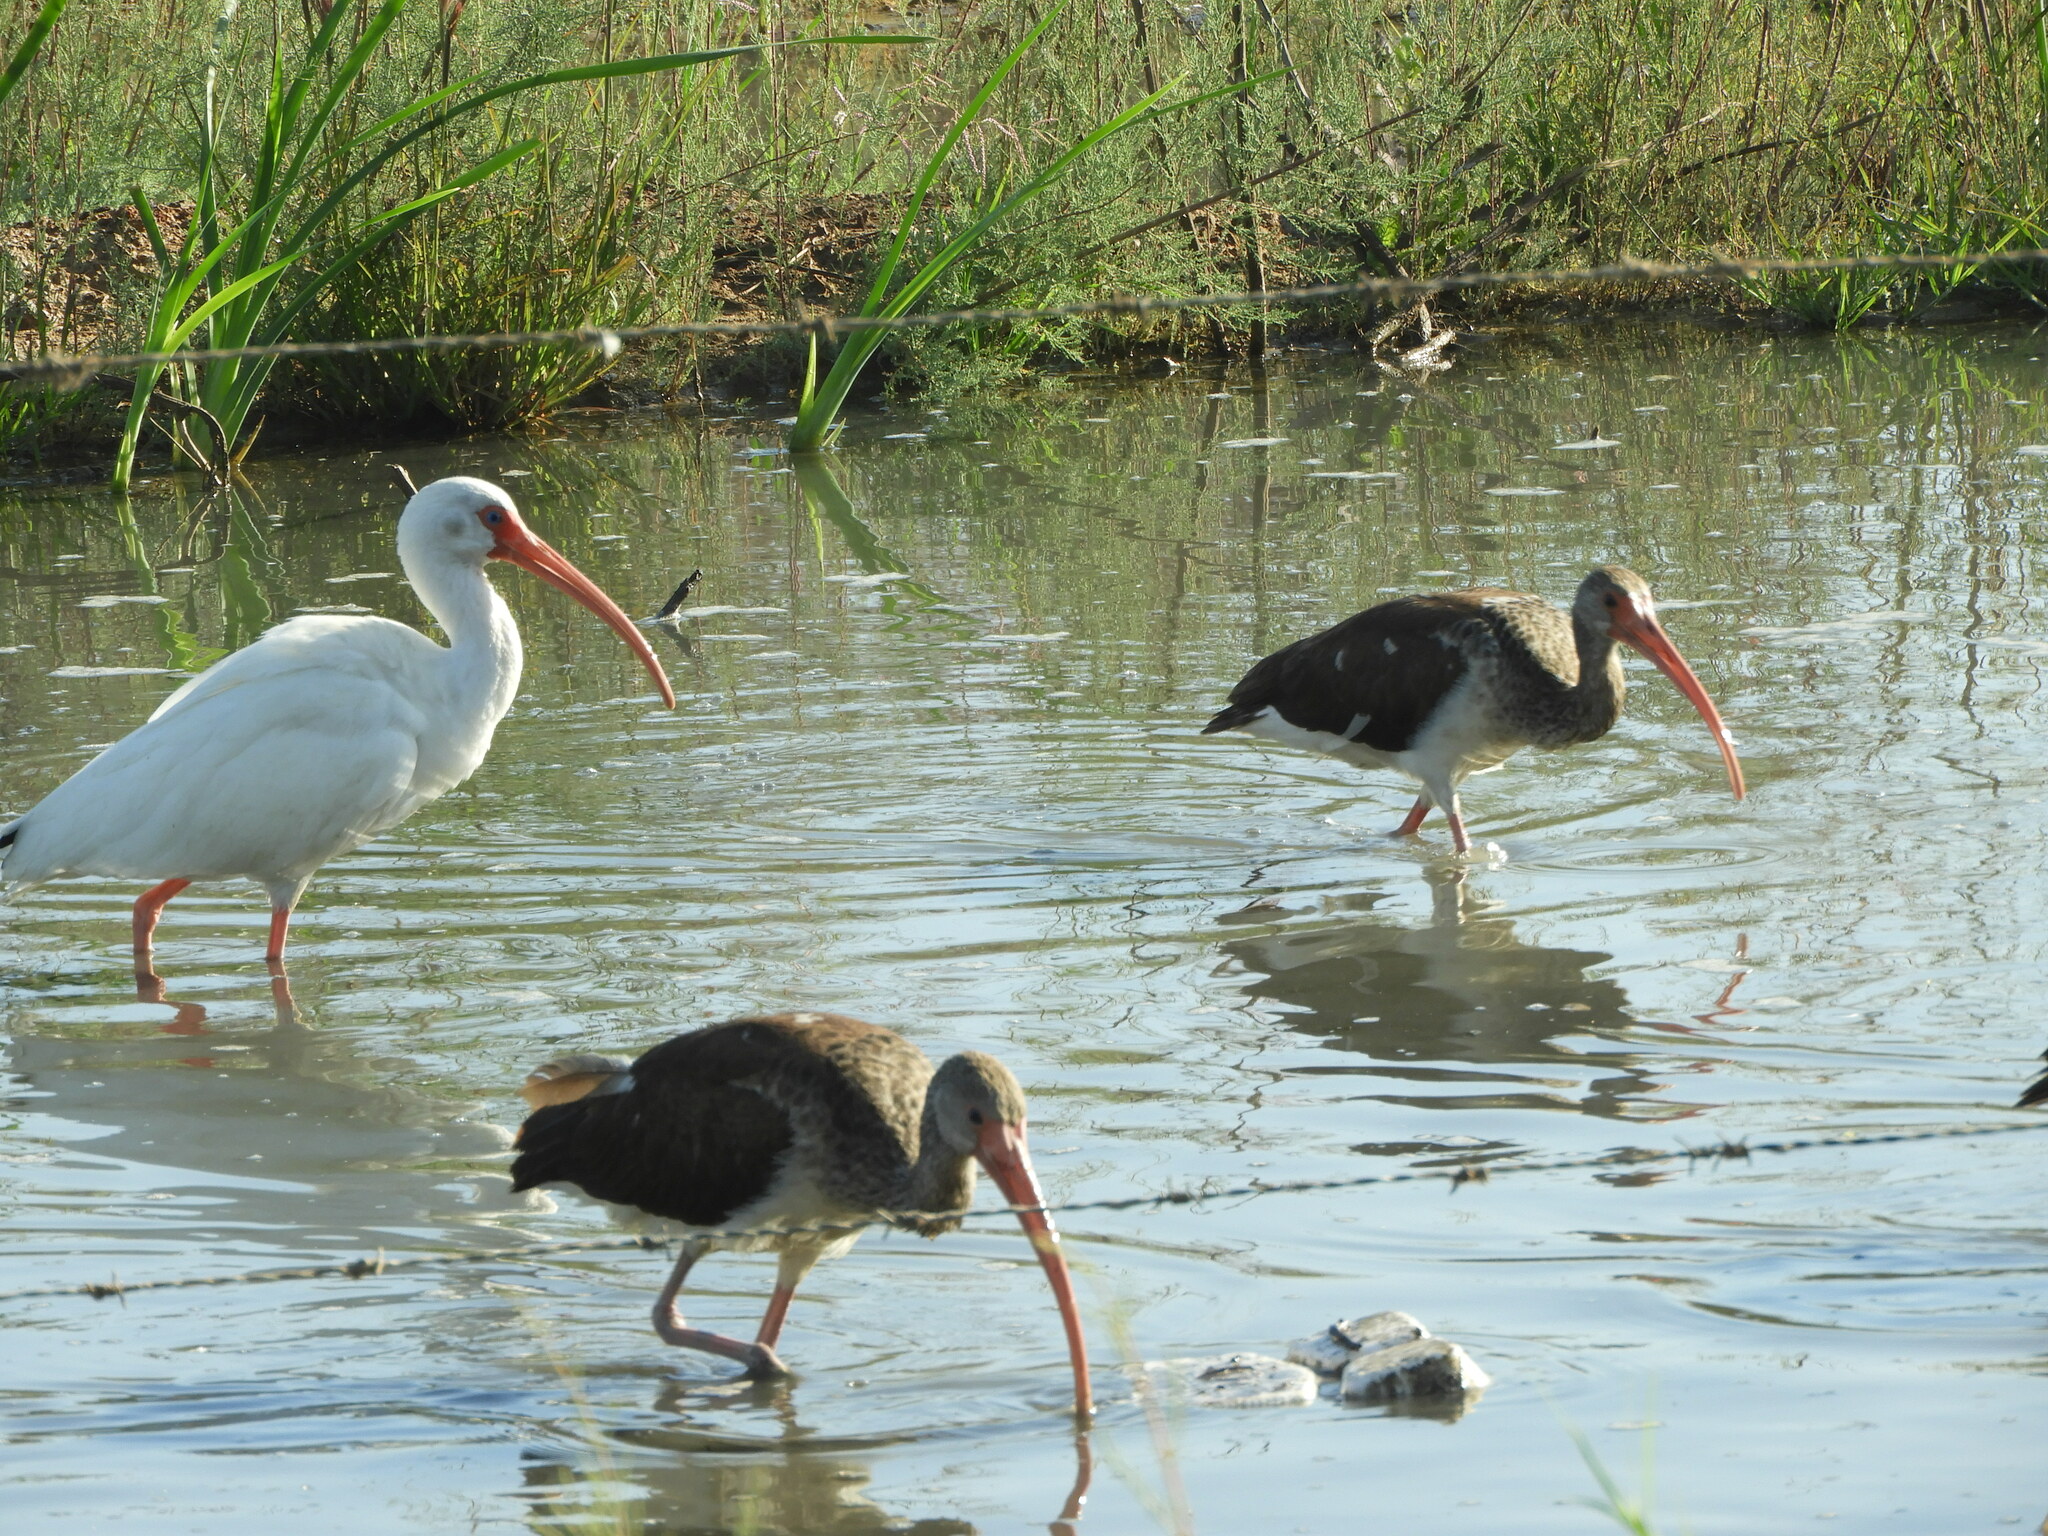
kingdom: Animalia
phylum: Chordata
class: Aves
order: Pelecaniformes
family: Threskiornithidae
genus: Eudocimus
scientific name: Eudocimus albus
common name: White ibis
